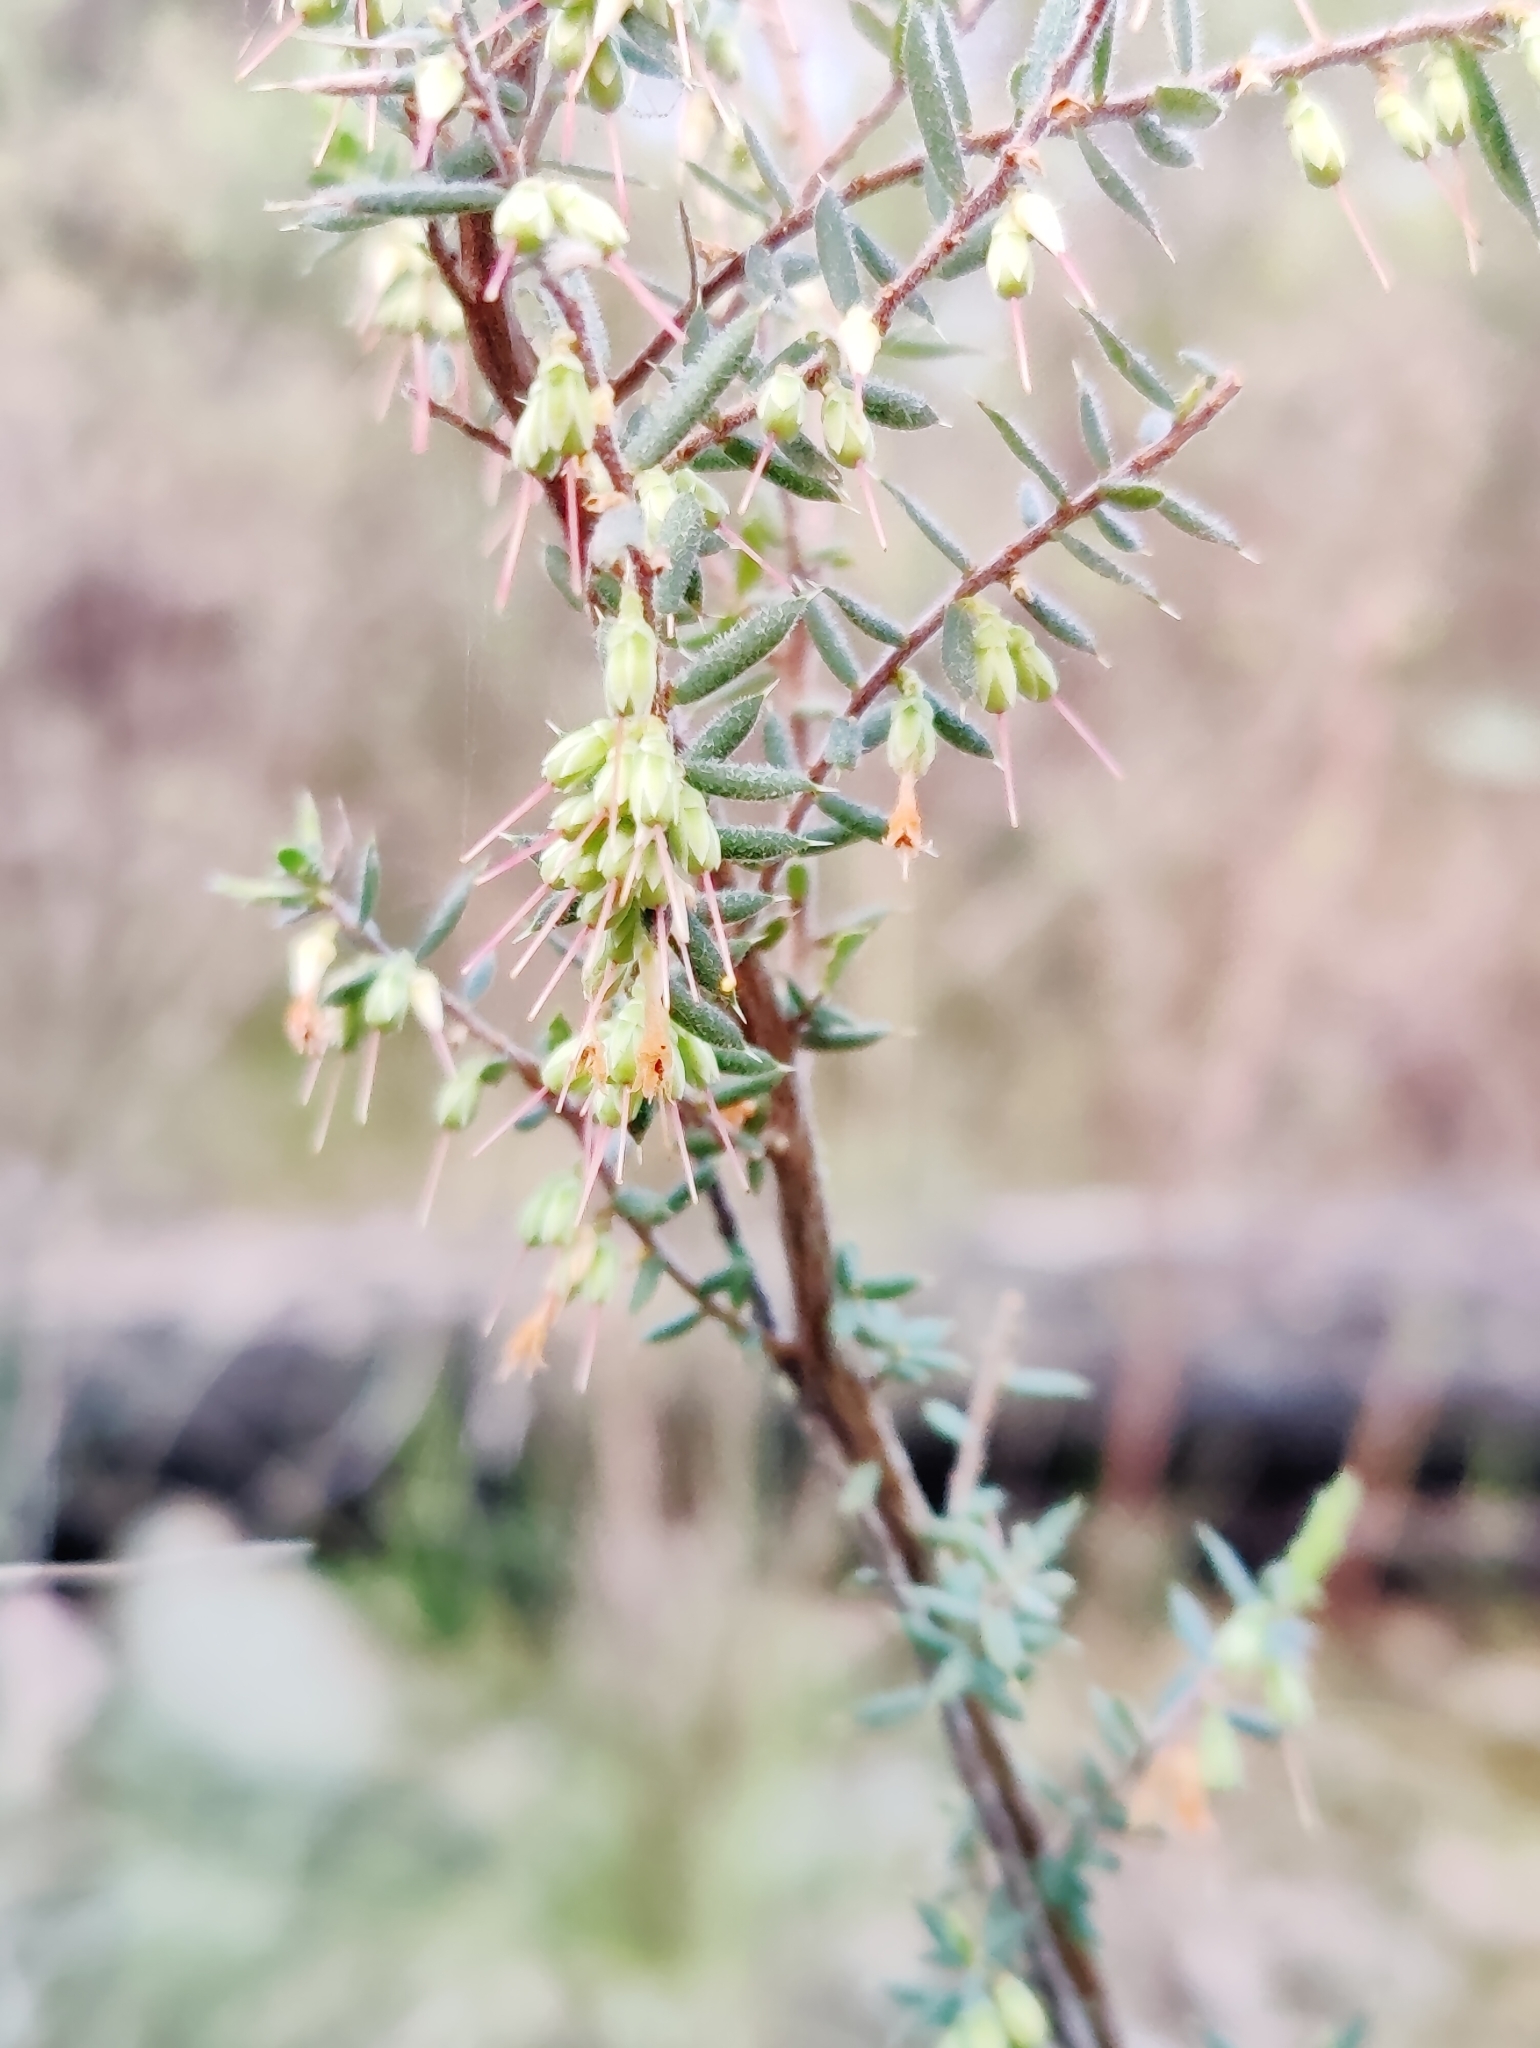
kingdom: Plantae
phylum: Tracheophyta
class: Magnoliopsida
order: Ericales
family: Ericaceae
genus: Styphelia
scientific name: Styphelia fletcheri
